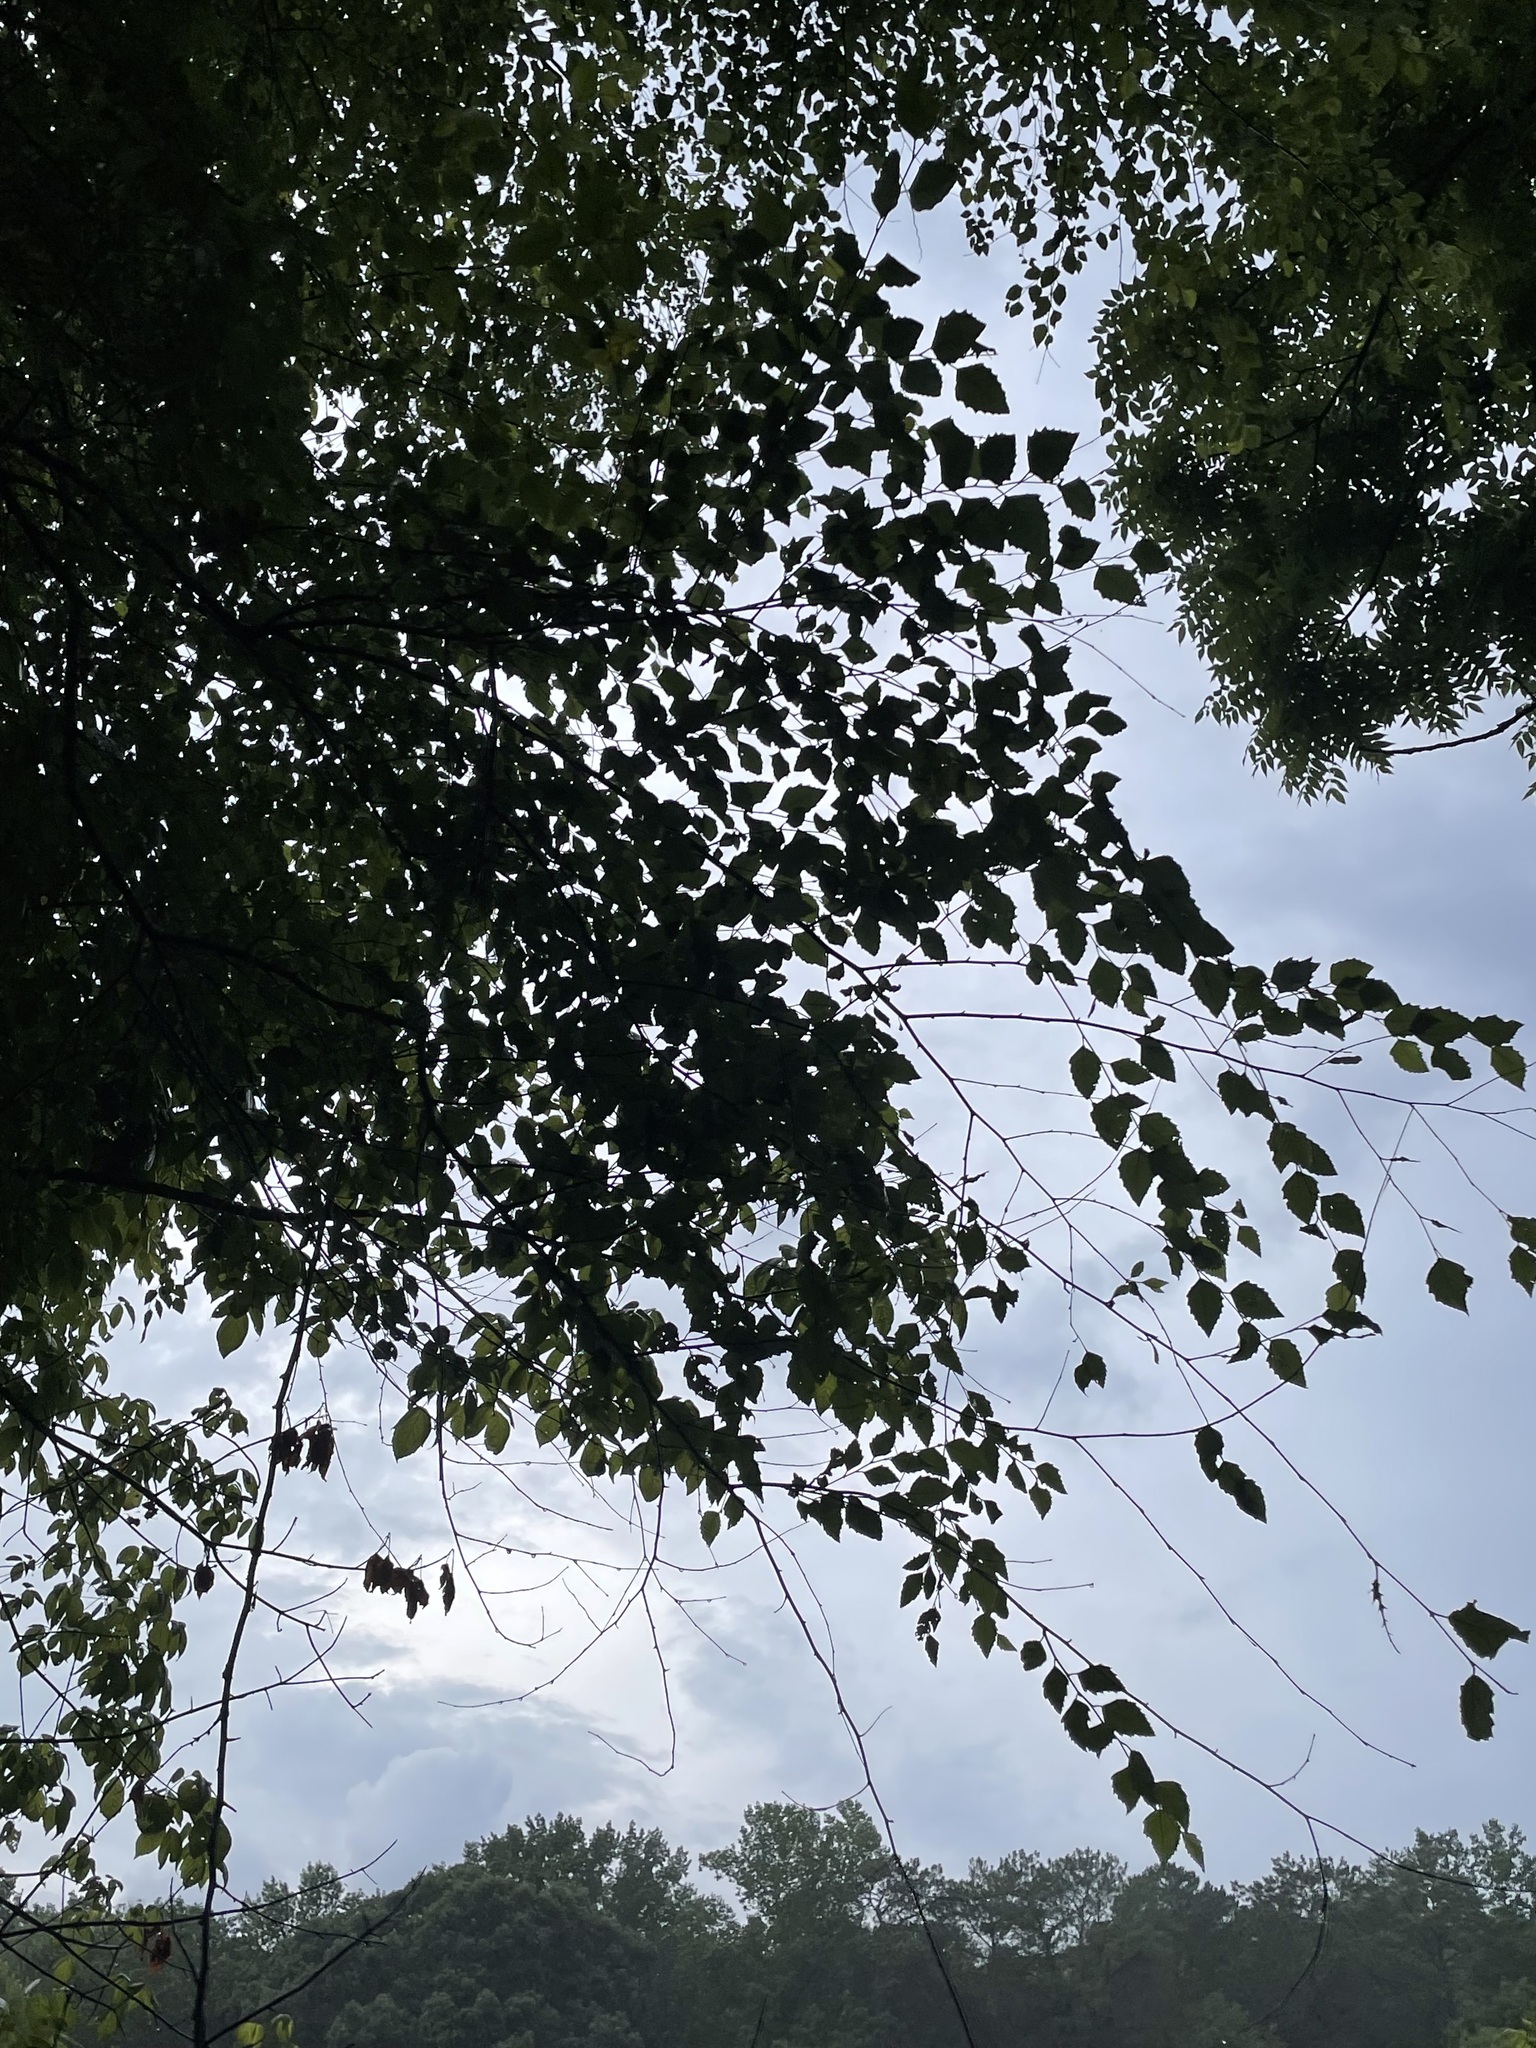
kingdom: Plantae
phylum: Tracheophyta
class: Magnoliopsida
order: Fagales
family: Betulaceae
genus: Betula
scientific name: Betula nigra
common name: Black birch
